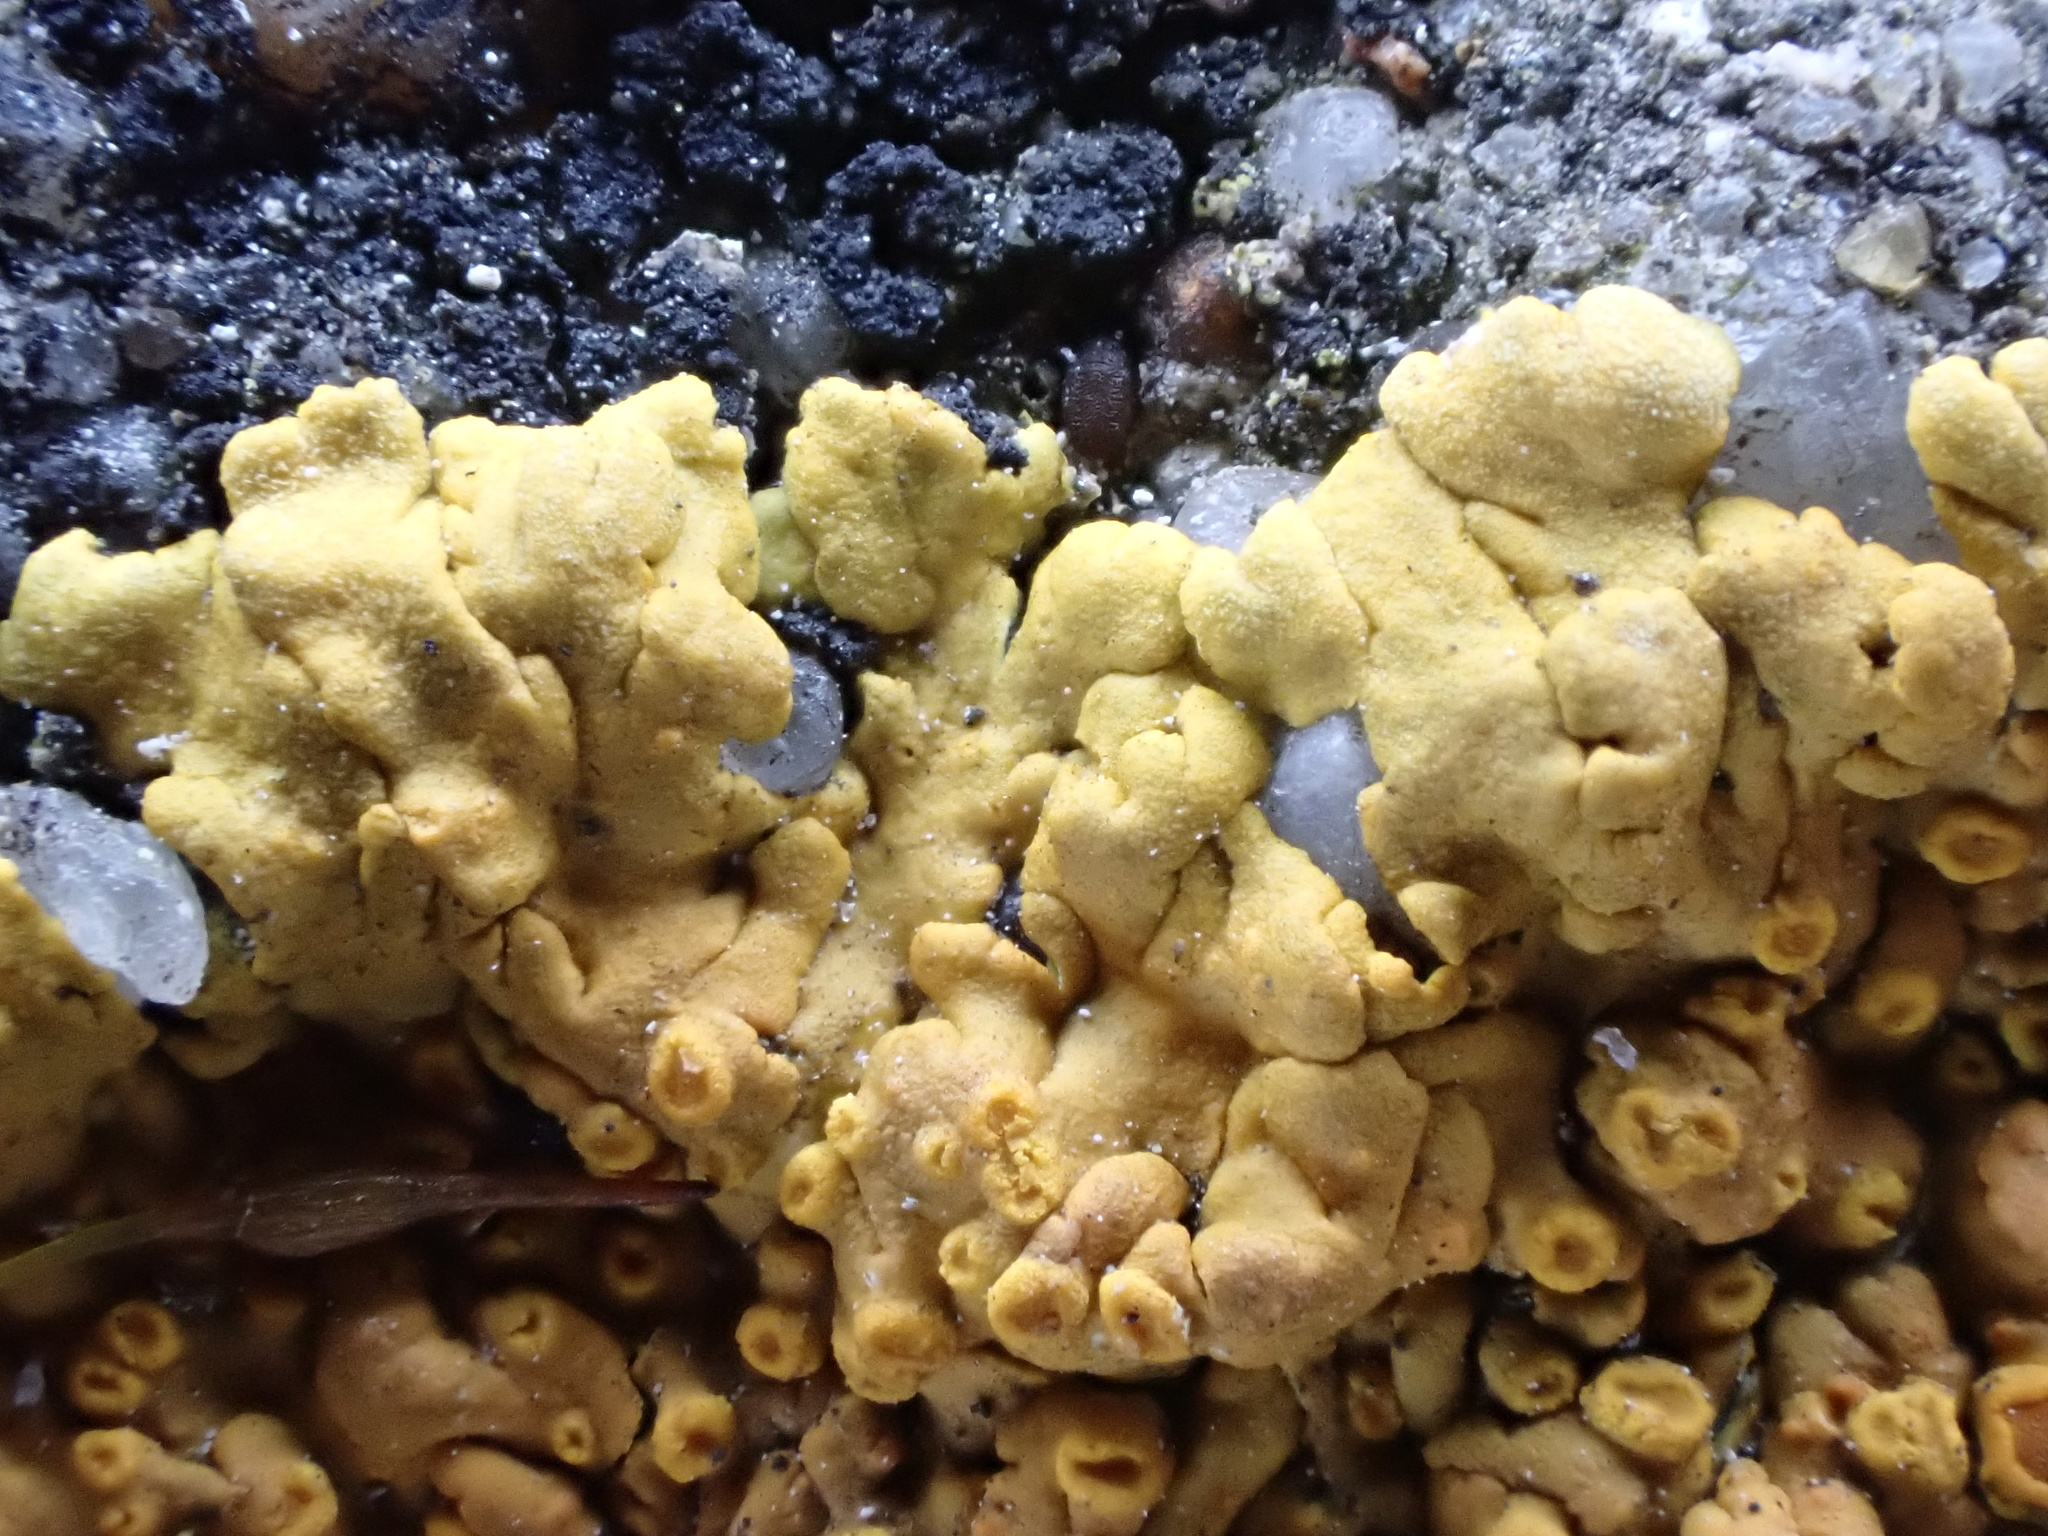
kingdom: Fungi
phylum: Ascomycota
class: Lecanoromycetes
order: Teloschistales
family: Teloschistaceae
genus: Variospora
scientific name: Variospora flavescens
